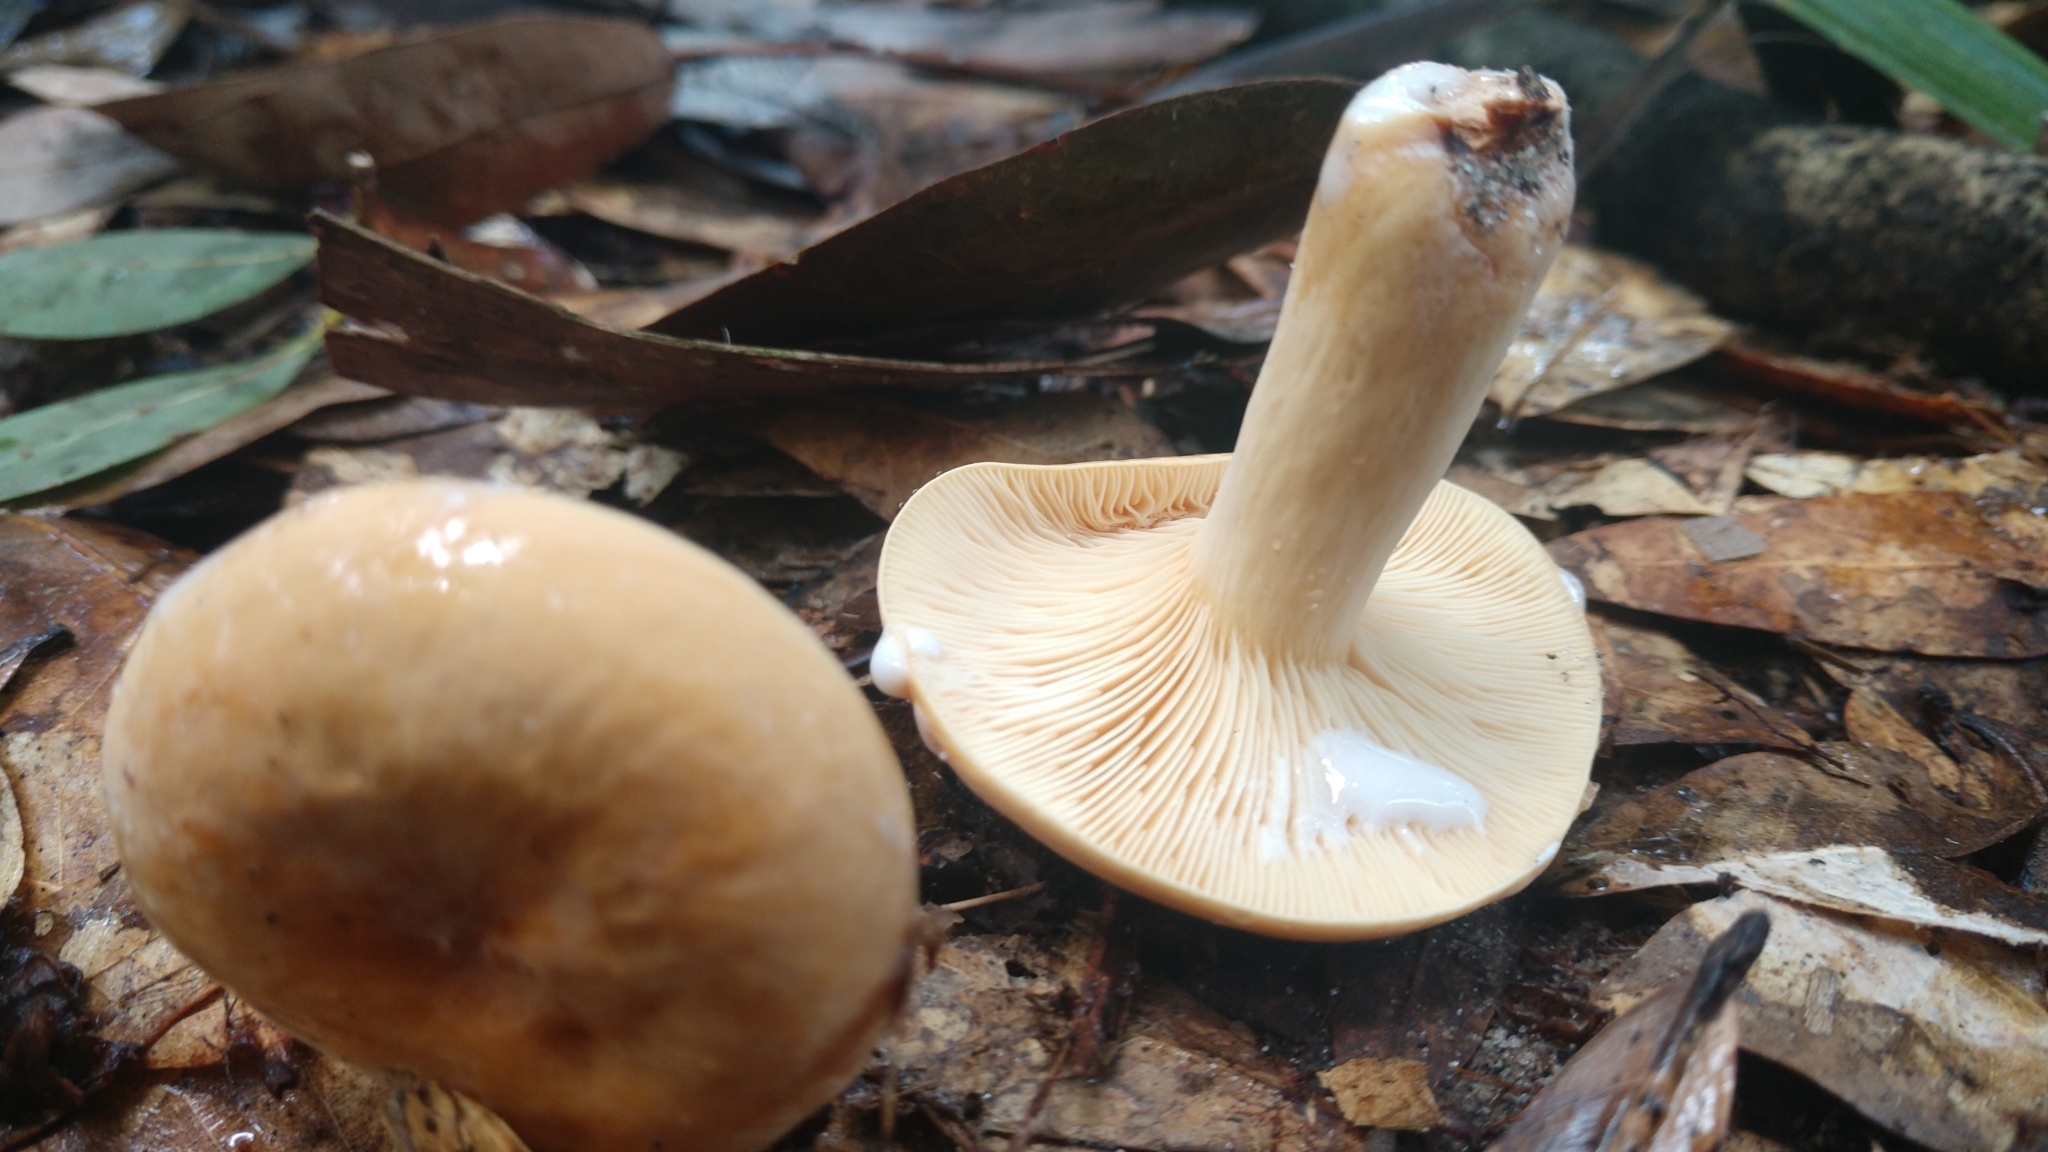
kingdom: Fungi
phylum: Basidiomycota
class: Agaricomycetes
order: Russulales
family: Russulaceae
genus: Lactifluus
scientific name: Lactifluus volemus
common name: Fishy milkcap
